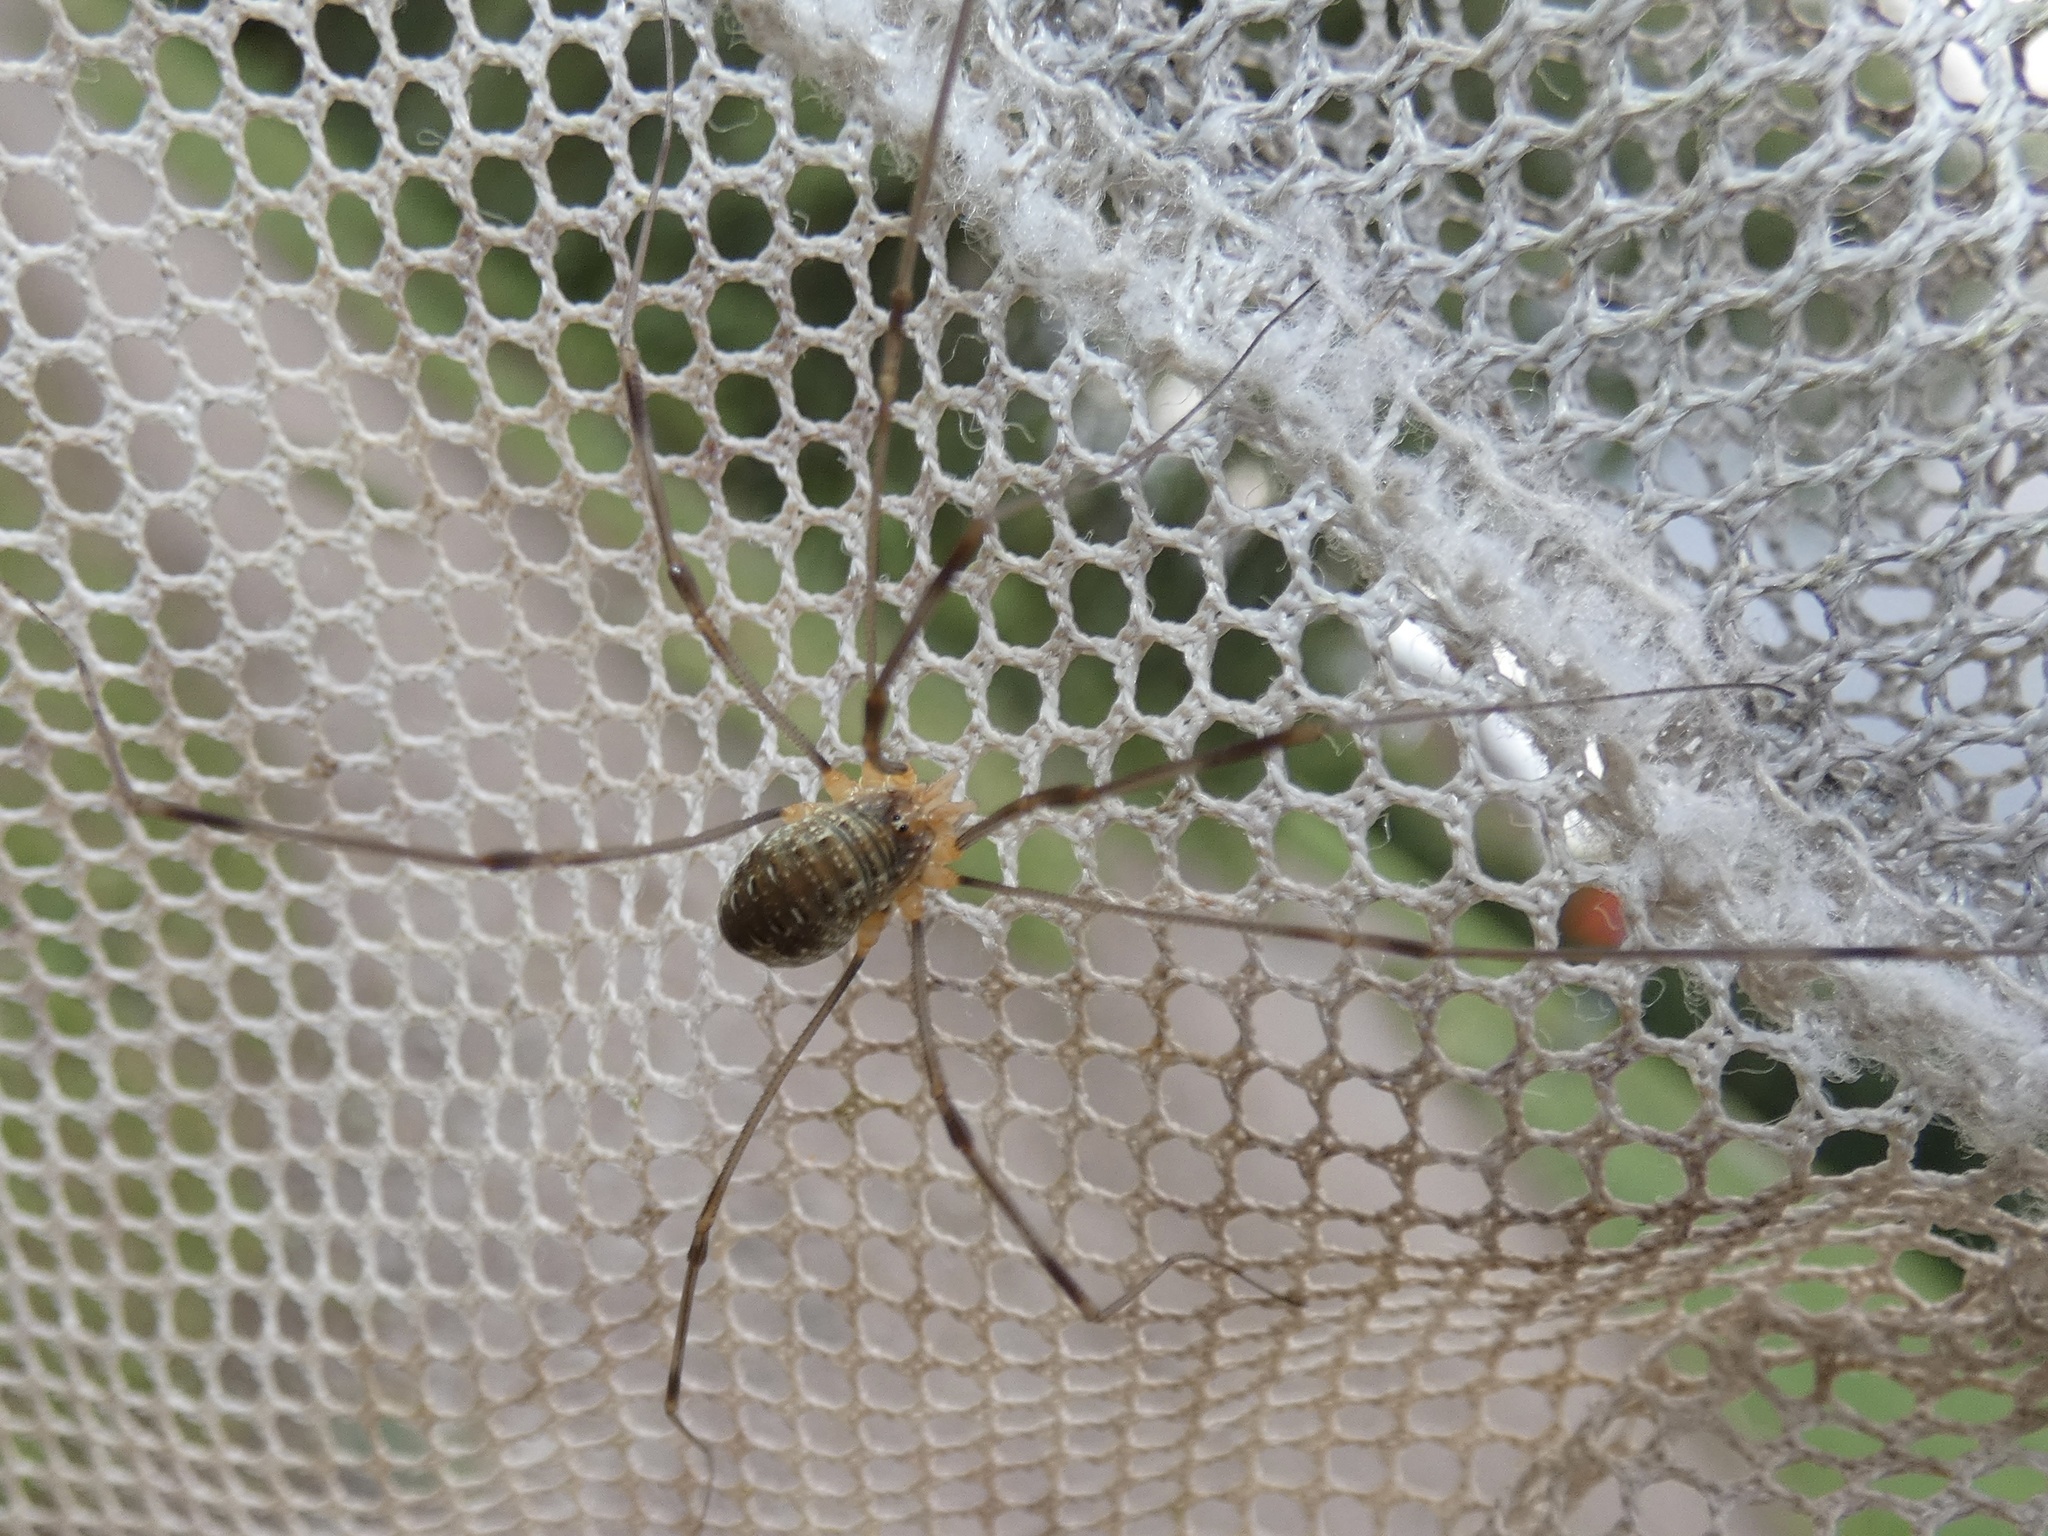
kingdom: Animalia
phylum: Arthropoda
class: Arachnida
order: Opiliones
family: Phalangiidae
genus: Opilio
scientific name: Opilio canestrinii
